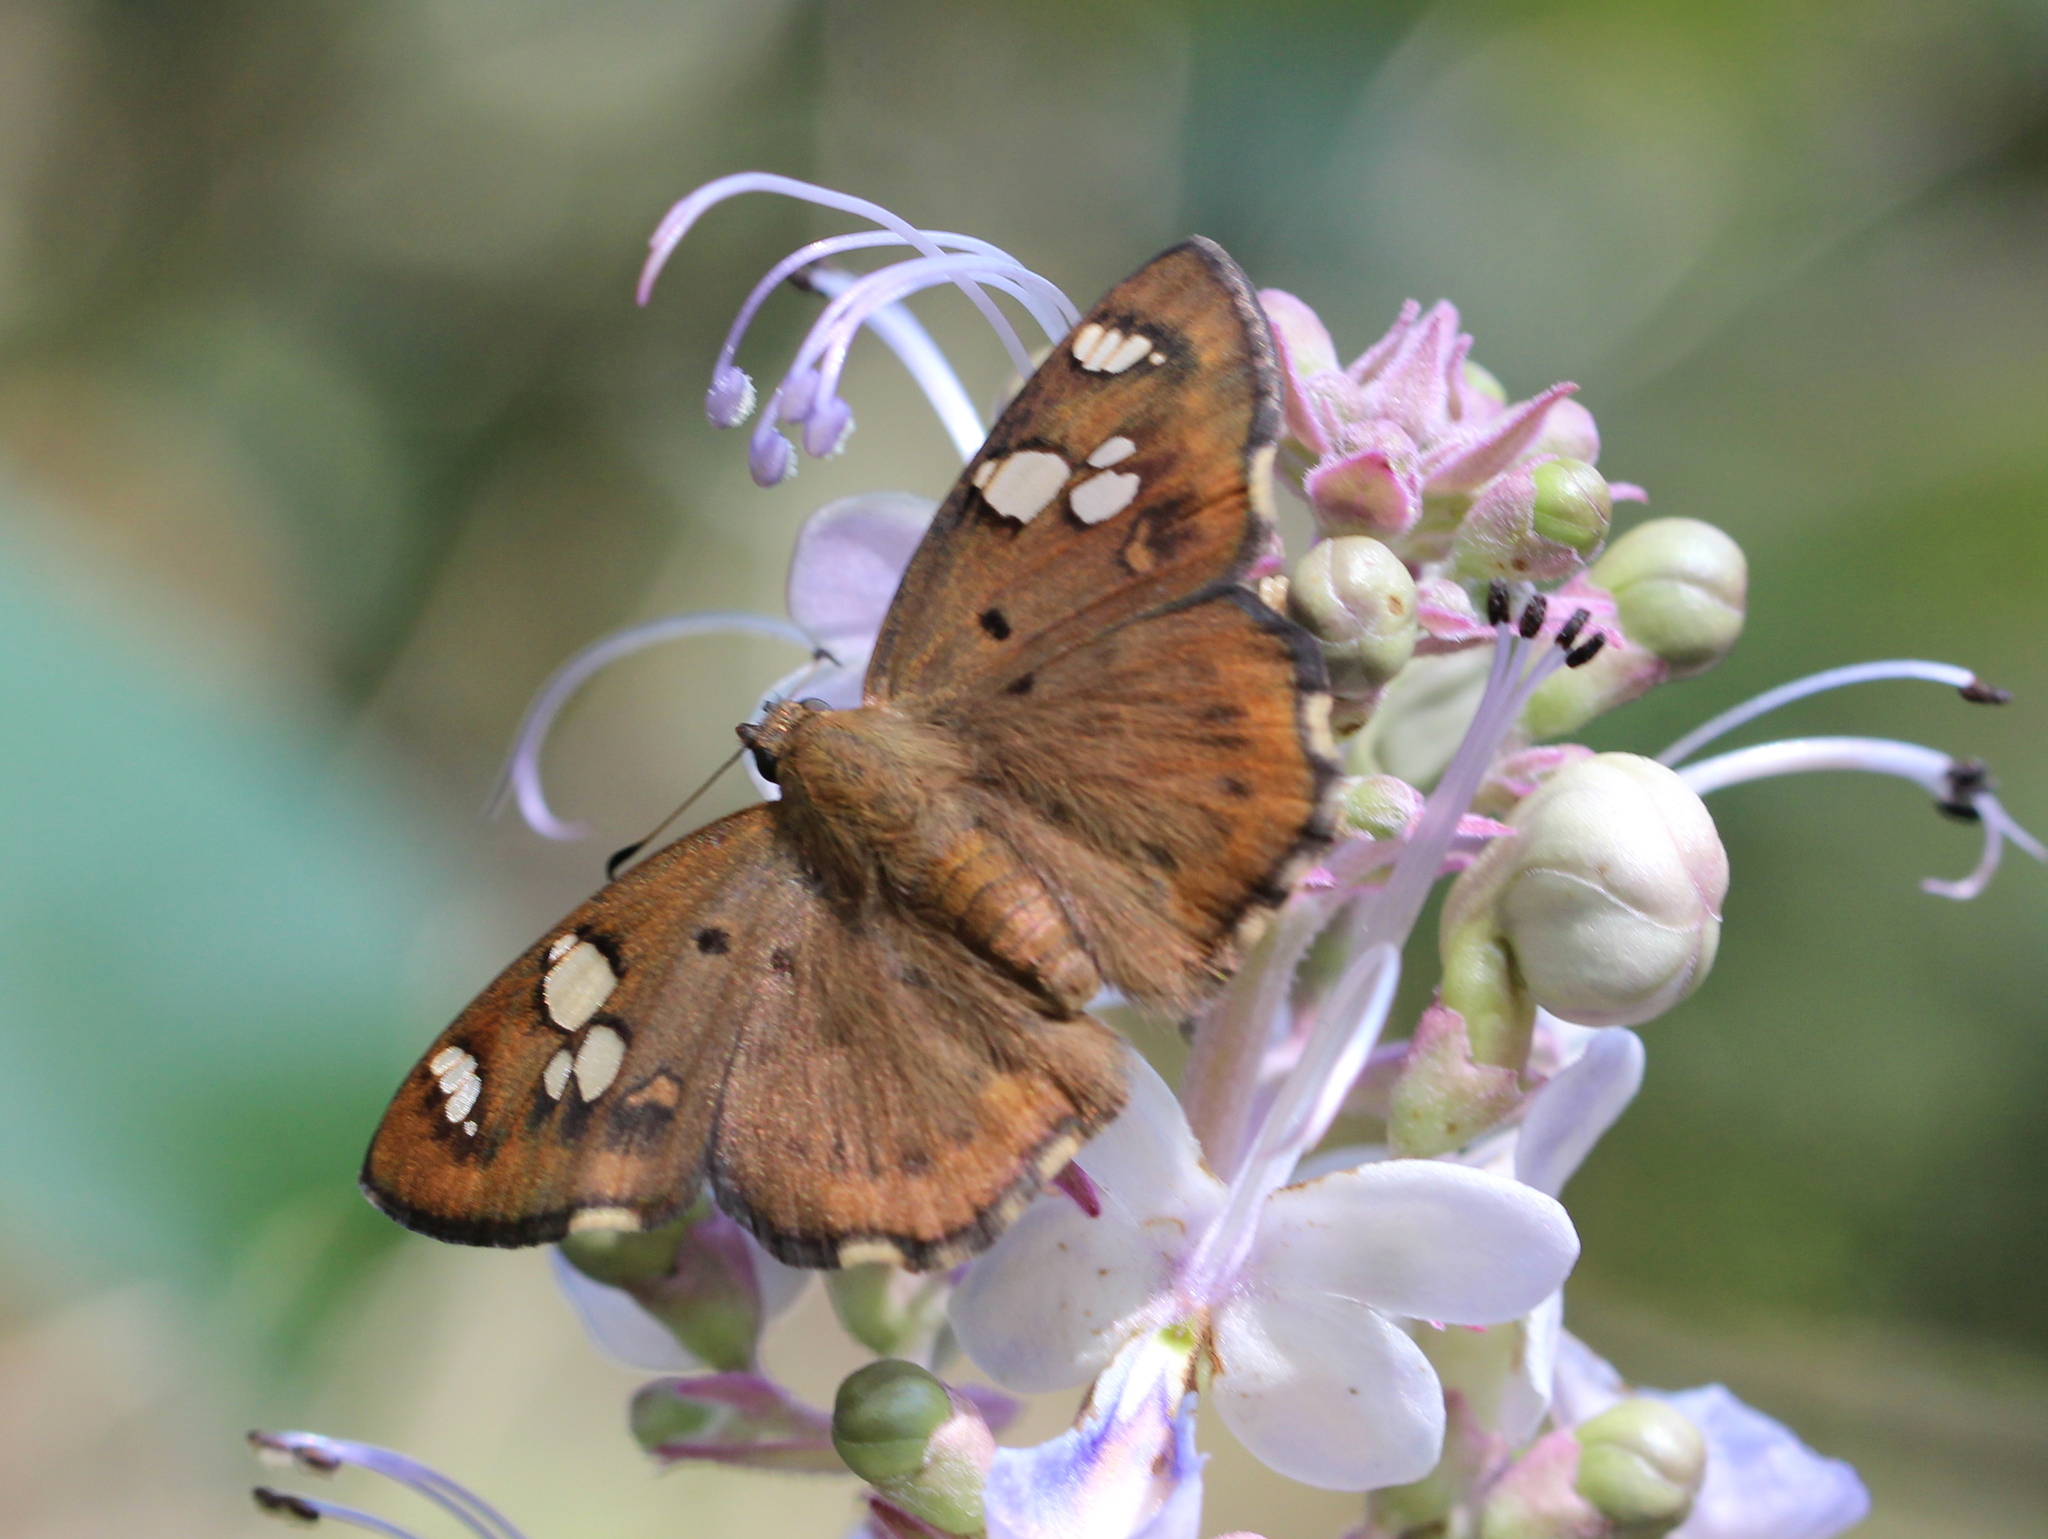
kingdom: Animalia
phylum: Arthropoda
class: Insecta
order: Lepidoptera
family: Hesperiidae
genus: Coladenia
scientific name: Coladenia
